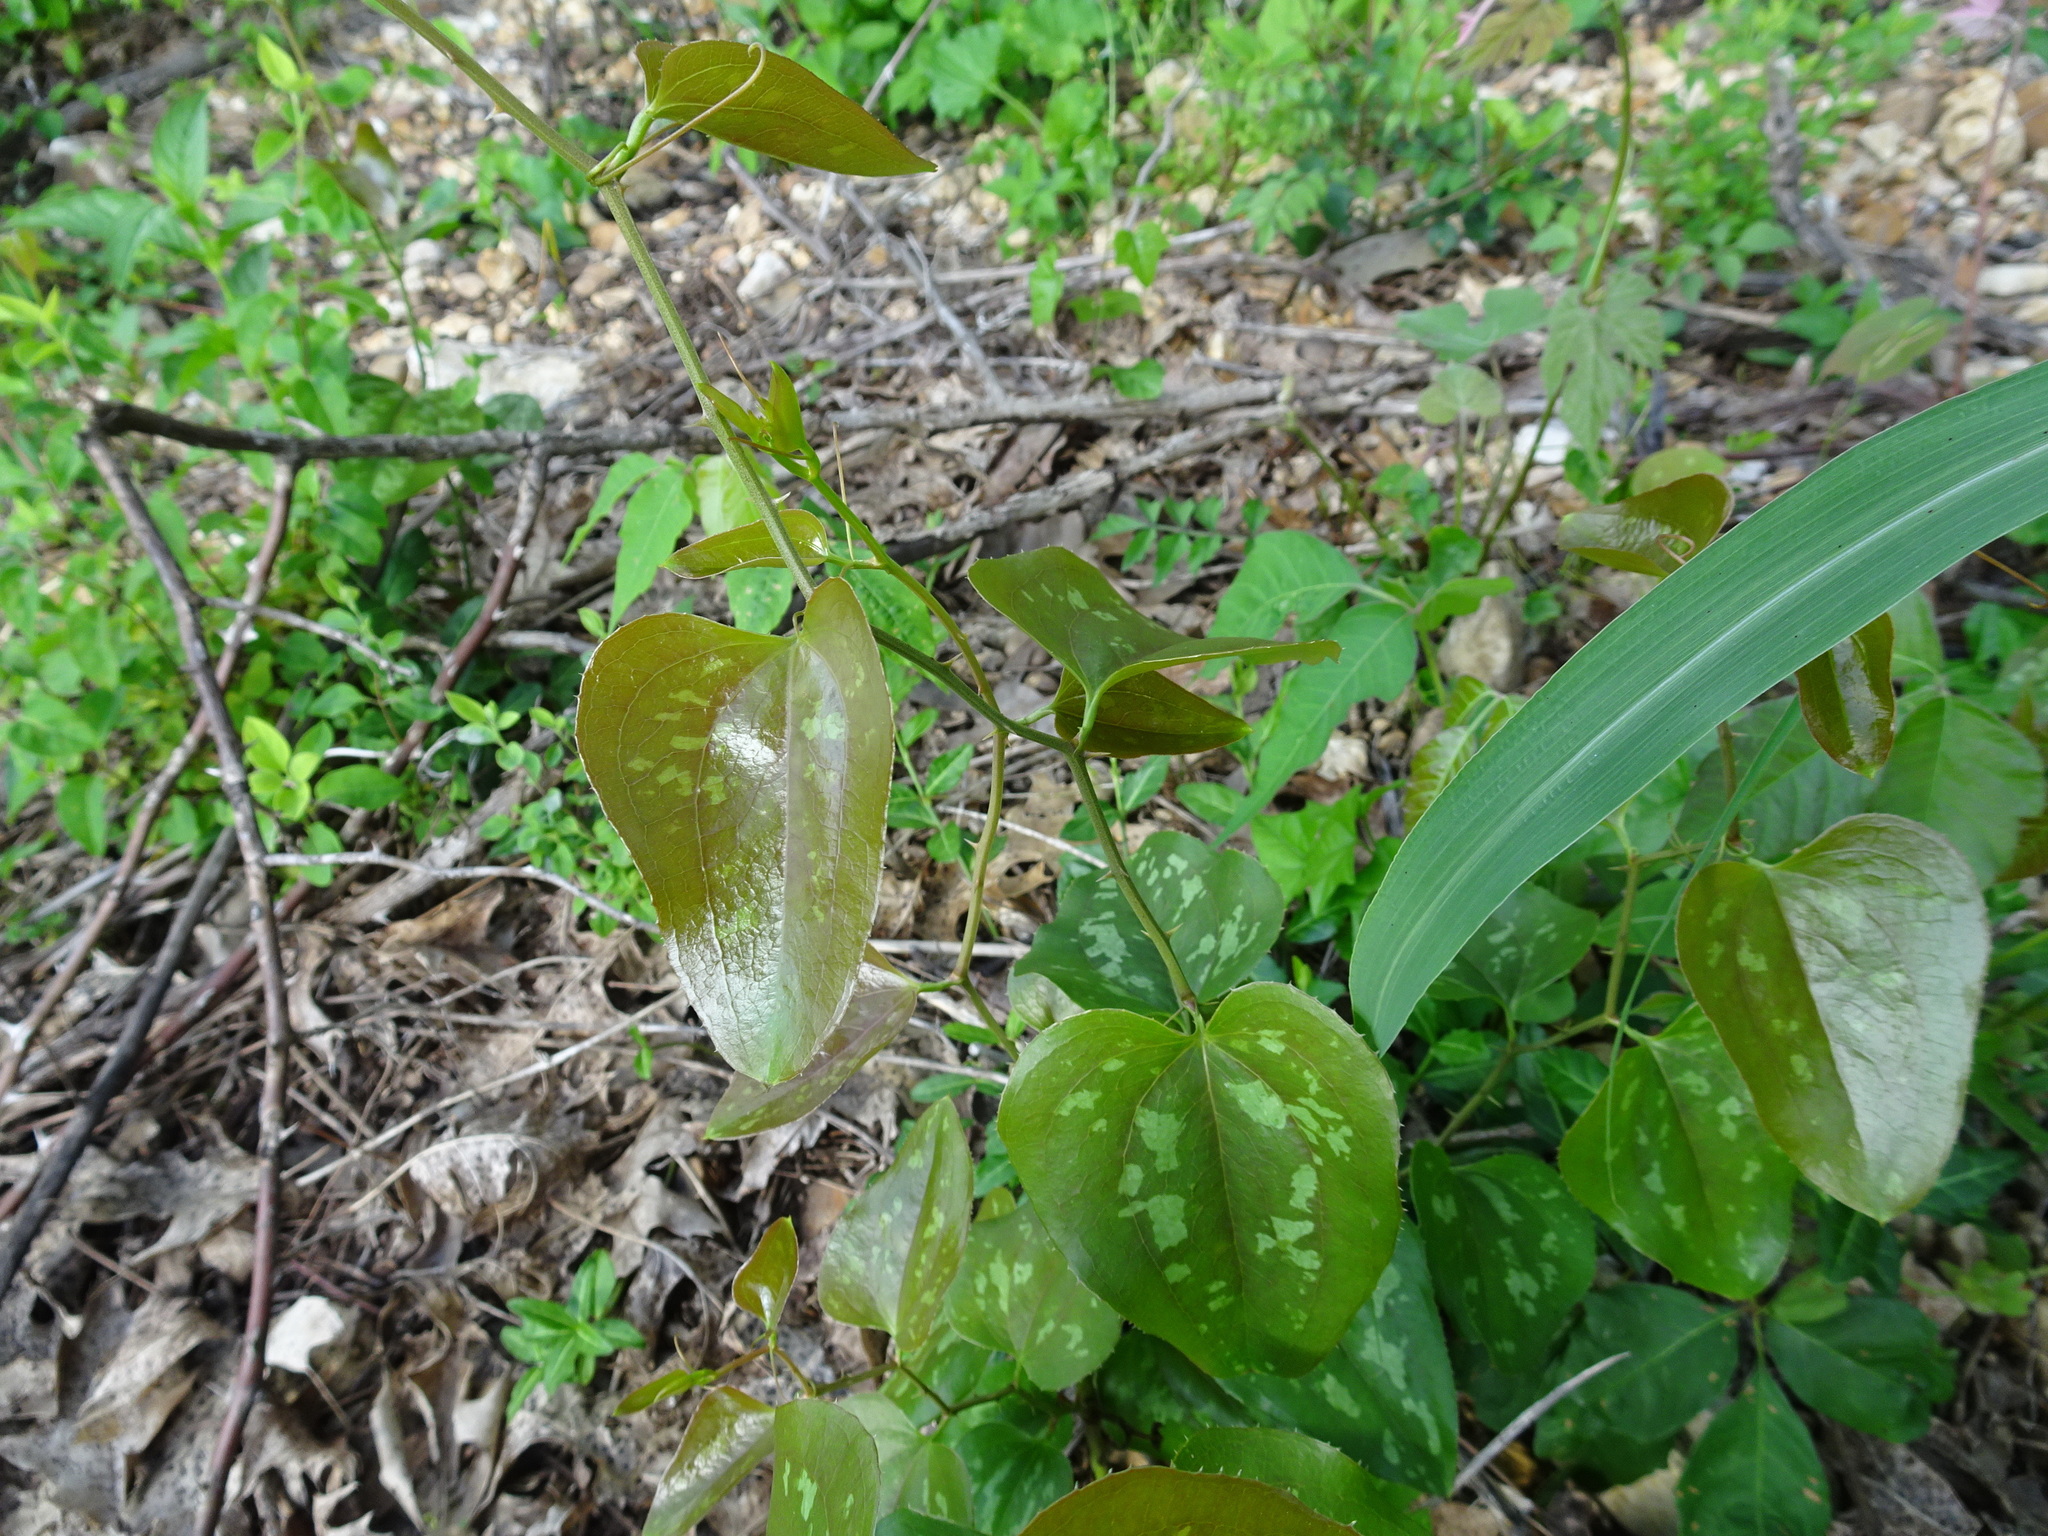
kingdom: Plantae
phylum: Tracheophyta
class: Liliopsida
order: Liliales
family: Smilacaceae
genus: Smilax
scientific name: Smilax bona-nox
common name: Catbrier
